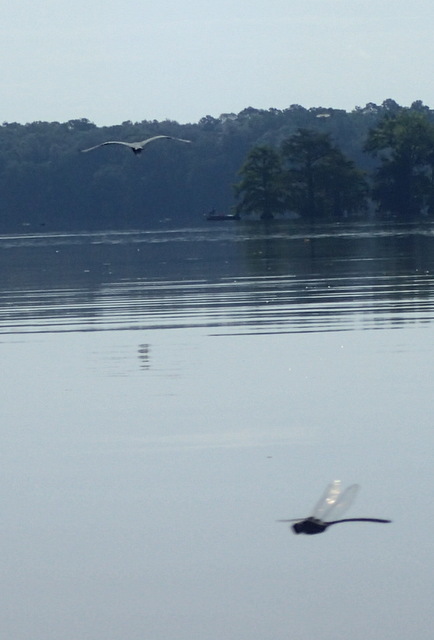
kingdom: Animalia
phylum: Chordata
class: Aves
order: Pelecaniformes
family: Ardeidae
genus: Ardea
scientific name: Ardea herodias
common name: Great blue heron
